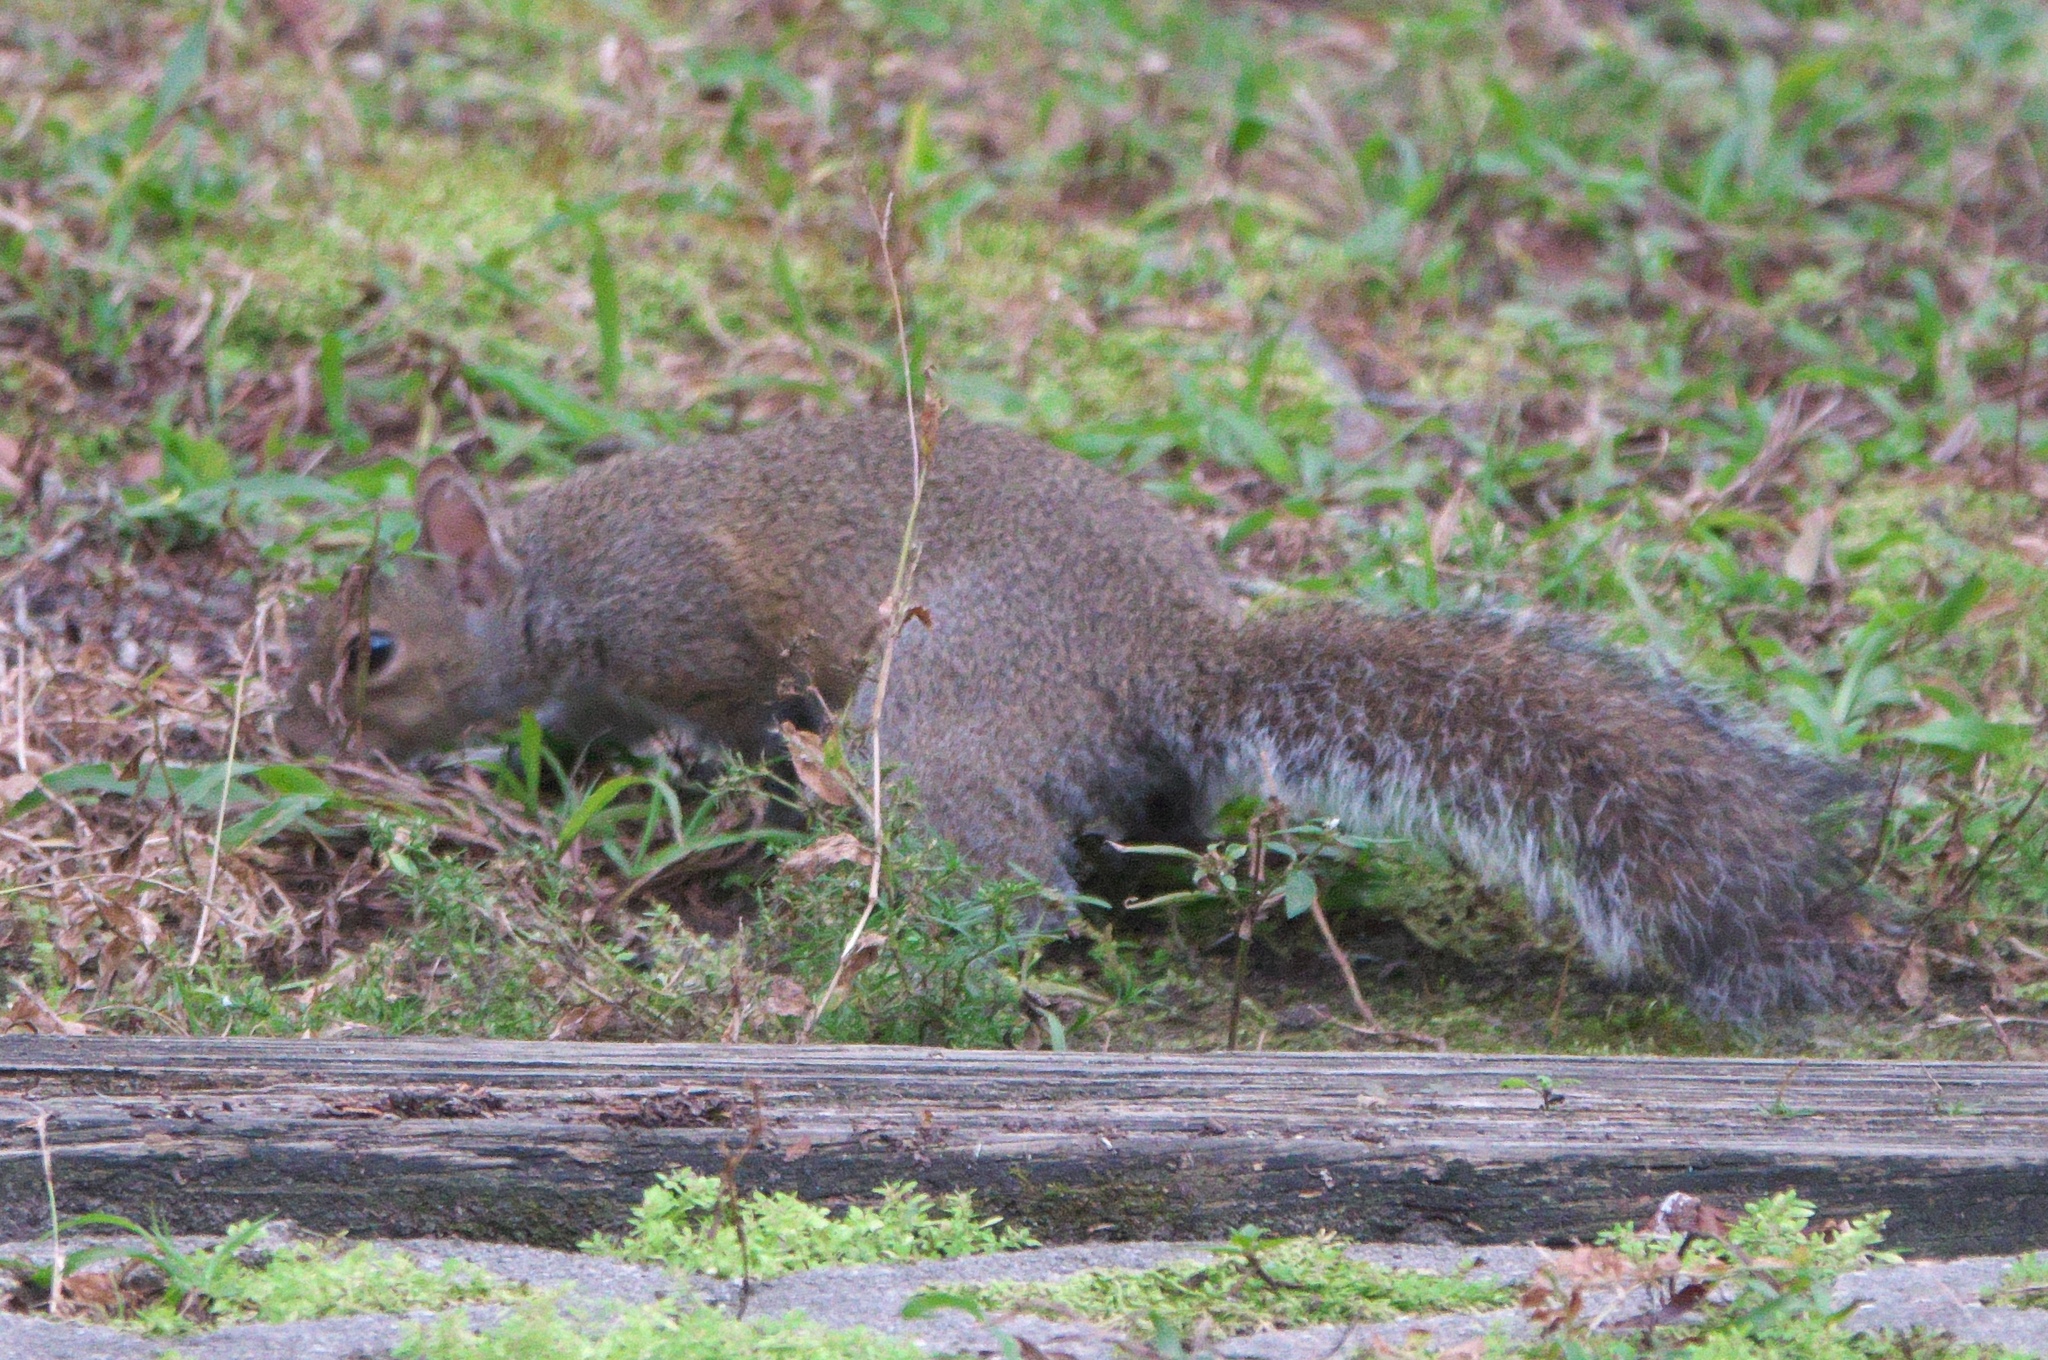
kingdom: Animalia
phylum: Chordata
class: Mammalia
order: Rodentia
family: Sciuridae
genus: Sciurus
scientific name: Sciurus carolinensis
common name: Eastern gray squirrel
